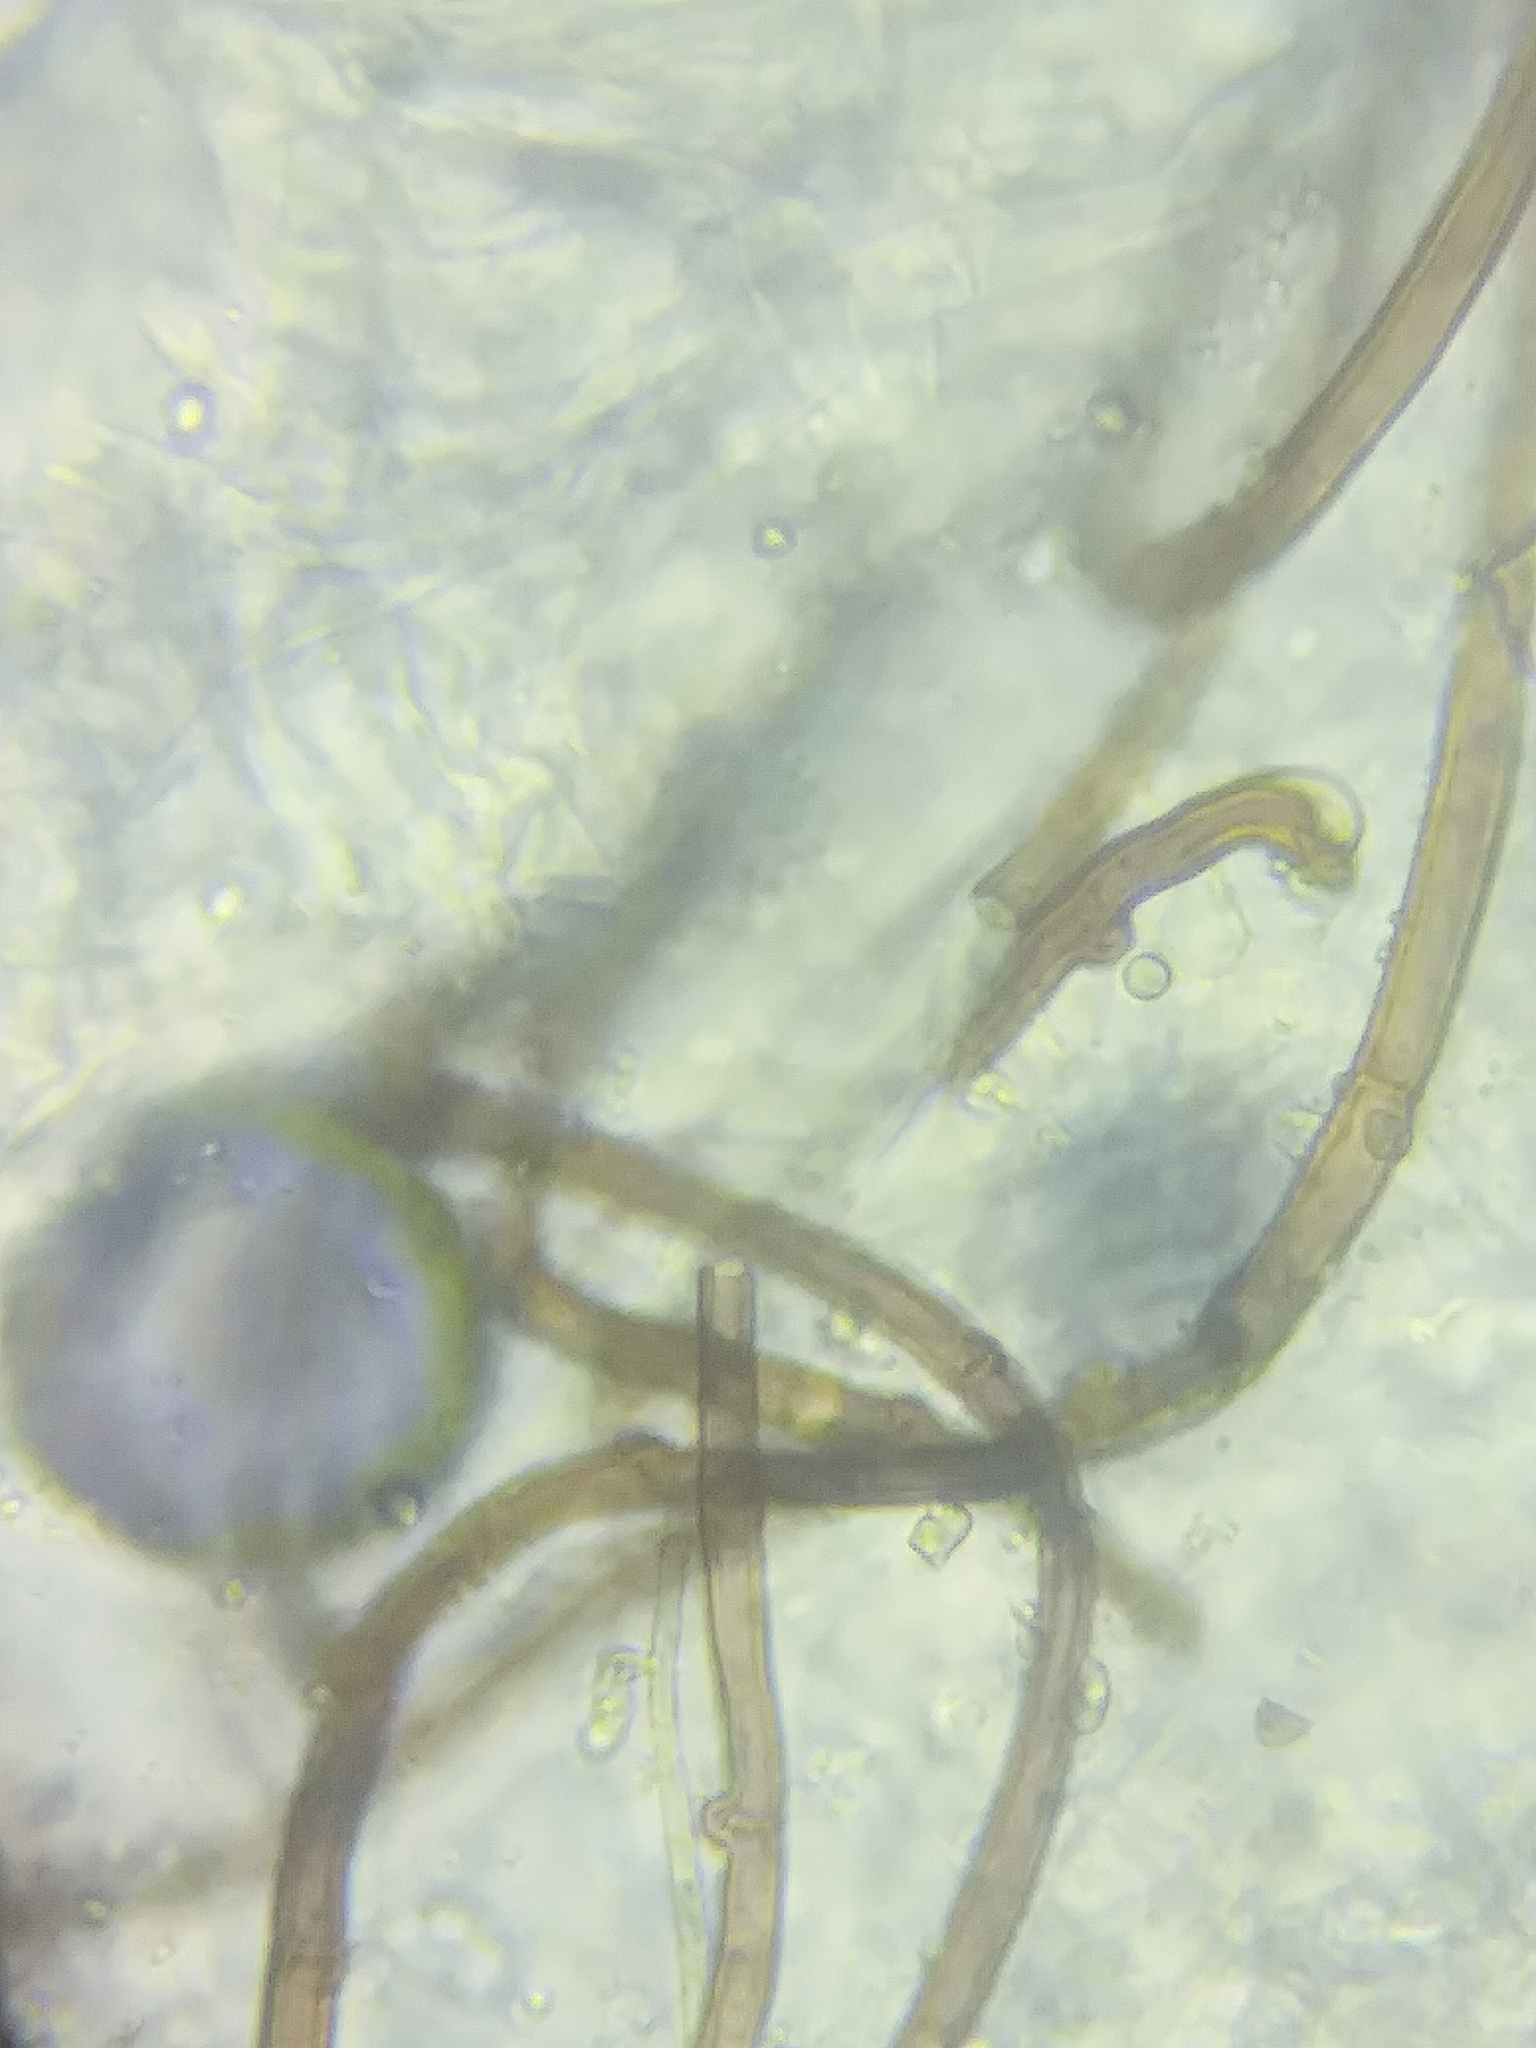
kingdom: Fungi
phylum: Basidiomycota
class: Agaricomycetes
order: Agaricales
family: Tricholomataceae
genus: Tricholoma
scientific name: Tricholoma columbetta
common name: Blue spot knight
